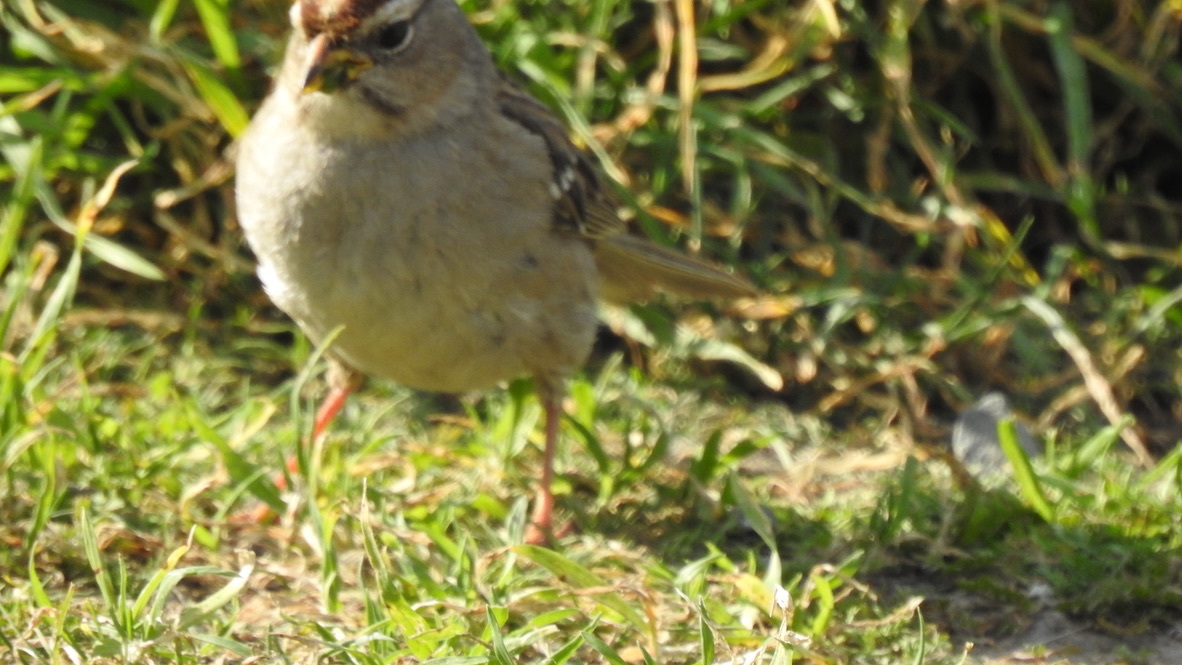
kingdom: Animalia
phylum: Chordata
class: Aves
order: Passeriformes
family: Passerellidae
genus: Zonotrichia
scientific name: Zonotrichia leucophrys
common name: White-crowned sparrow
